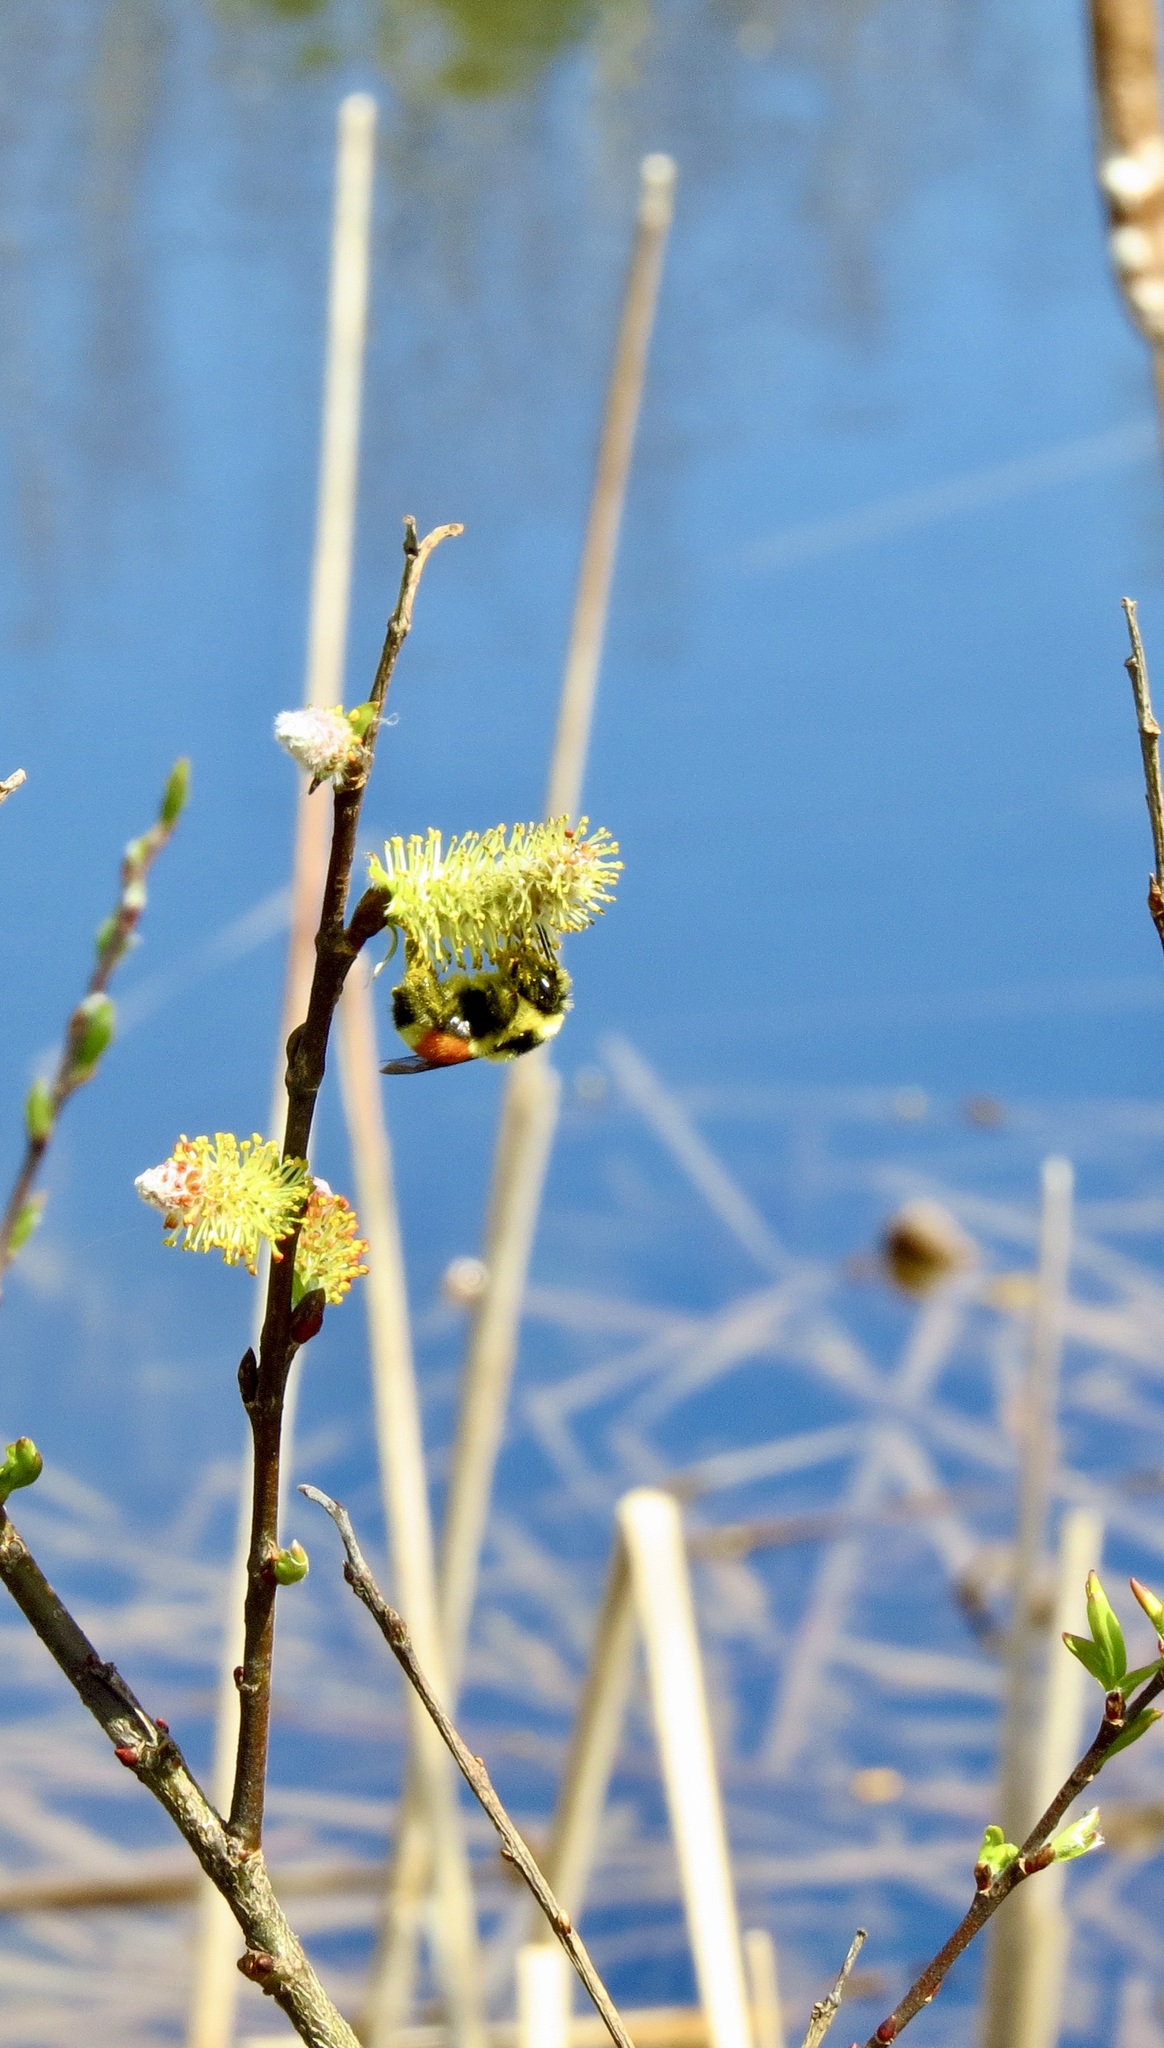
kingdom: Animalia
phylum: Arthropoda
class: Insecta
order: Hymenoptera
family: Apidae
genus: Bombus
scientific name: Bombus ternarius
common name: Tri-colored bumble bee
